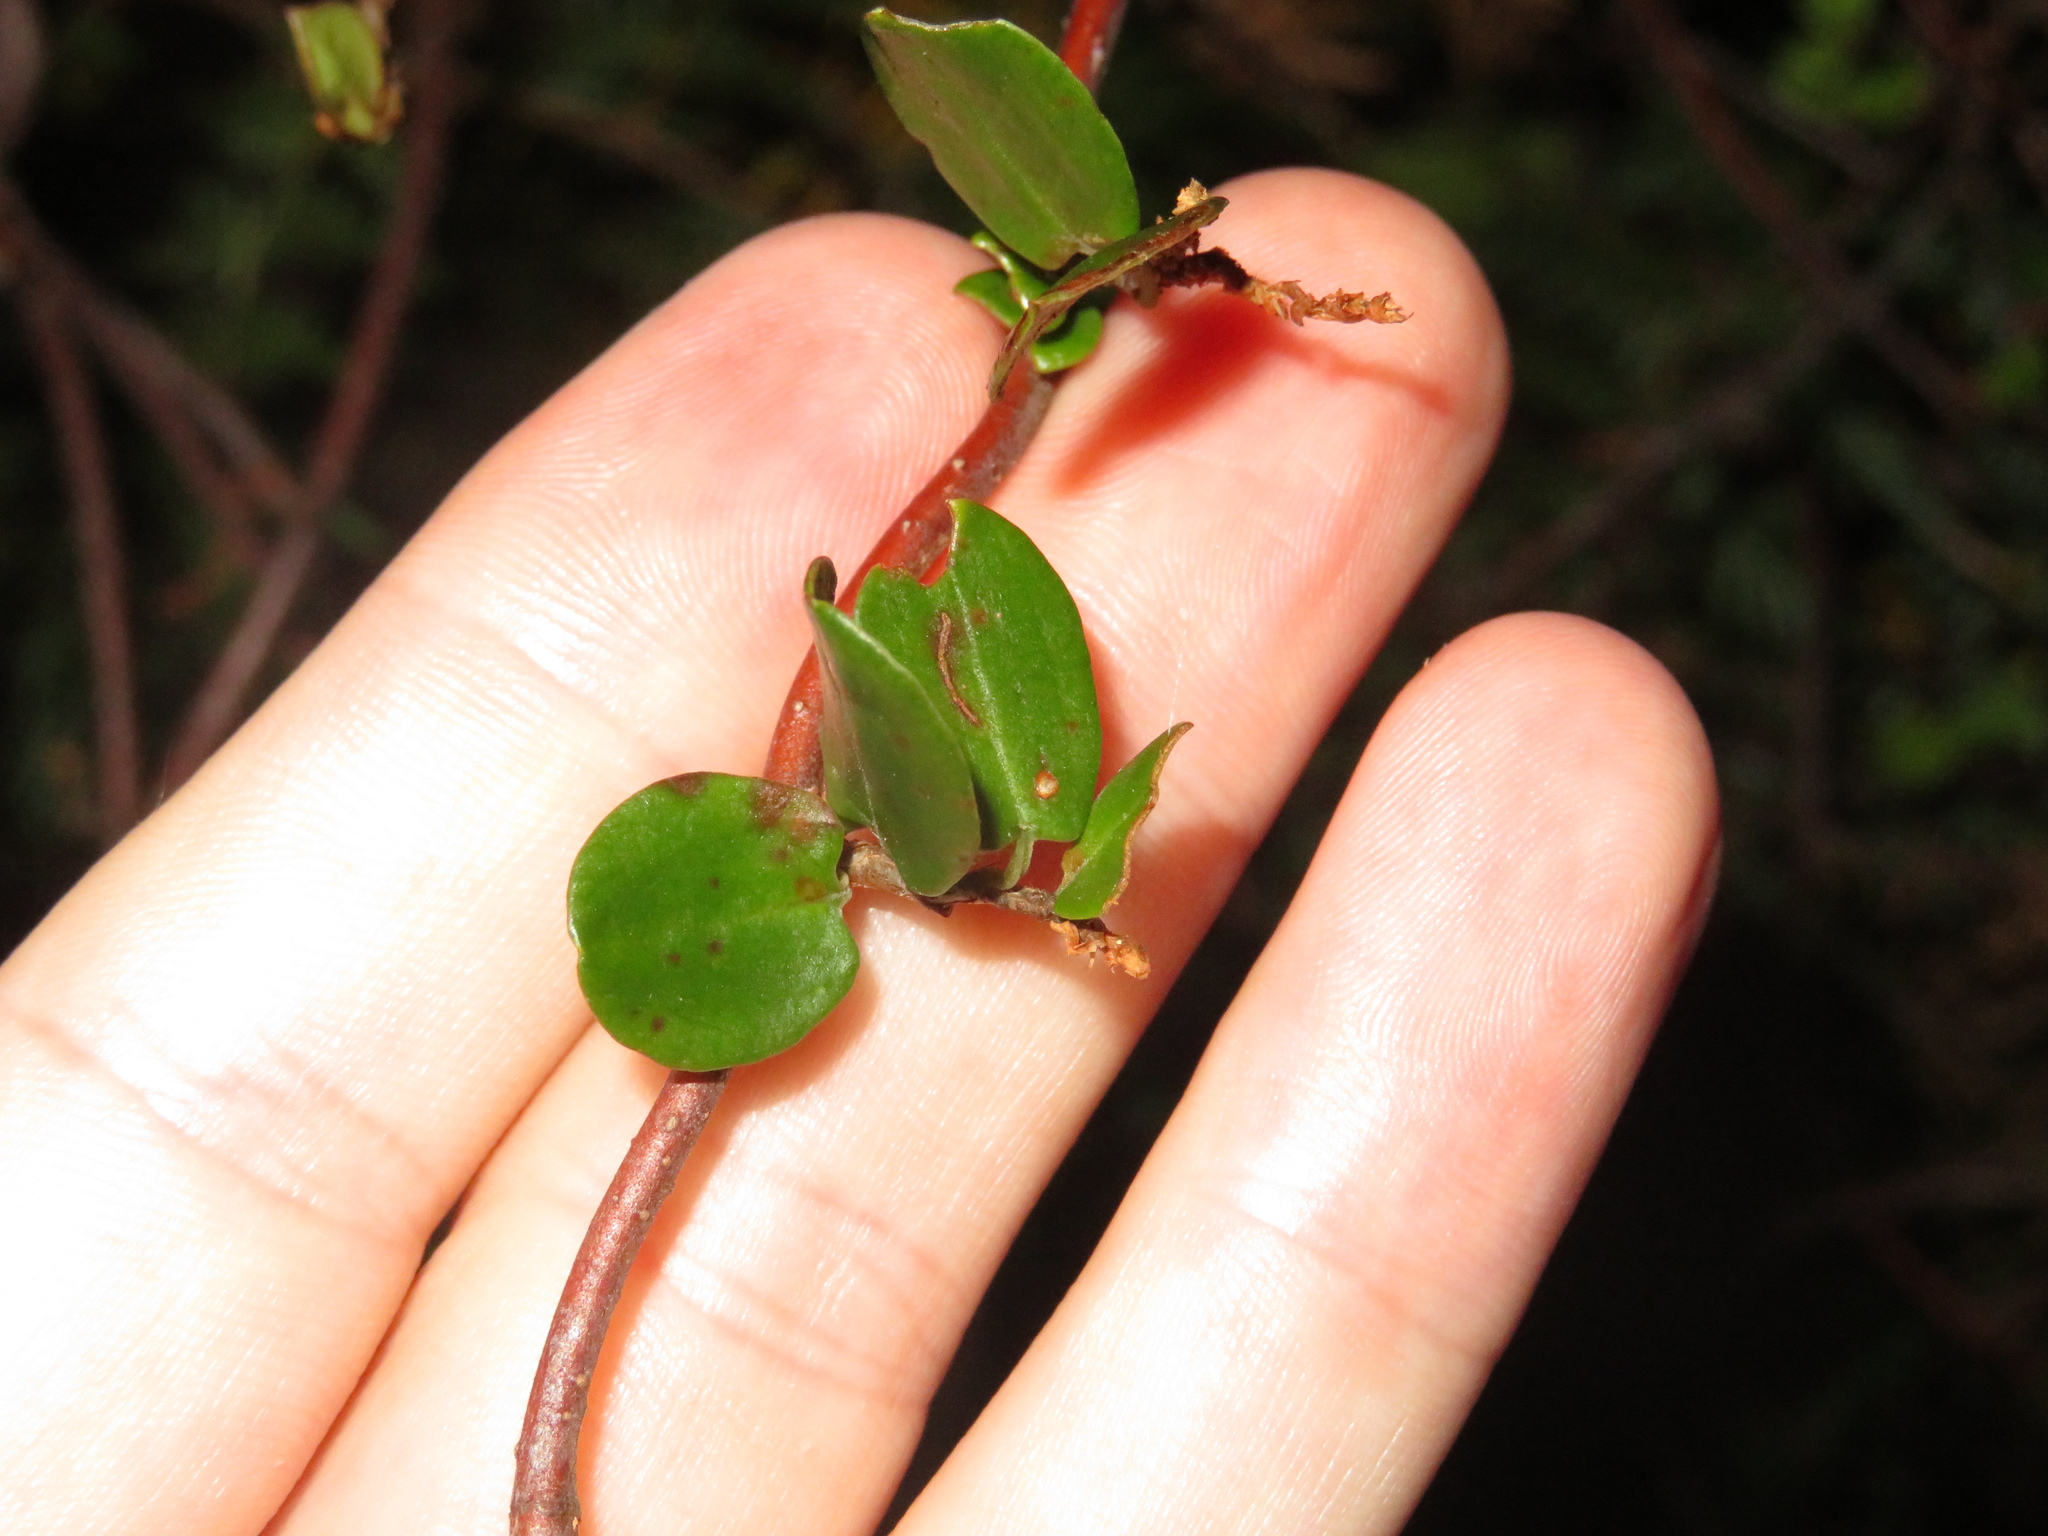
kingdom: Plantae
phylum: Tracheophyta
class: Magnoliopsida
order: Caryophyllales
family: Polygonaceae
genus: Muehlenbeckia
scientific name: Muehlenbeckia complexa
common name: Wireplant
